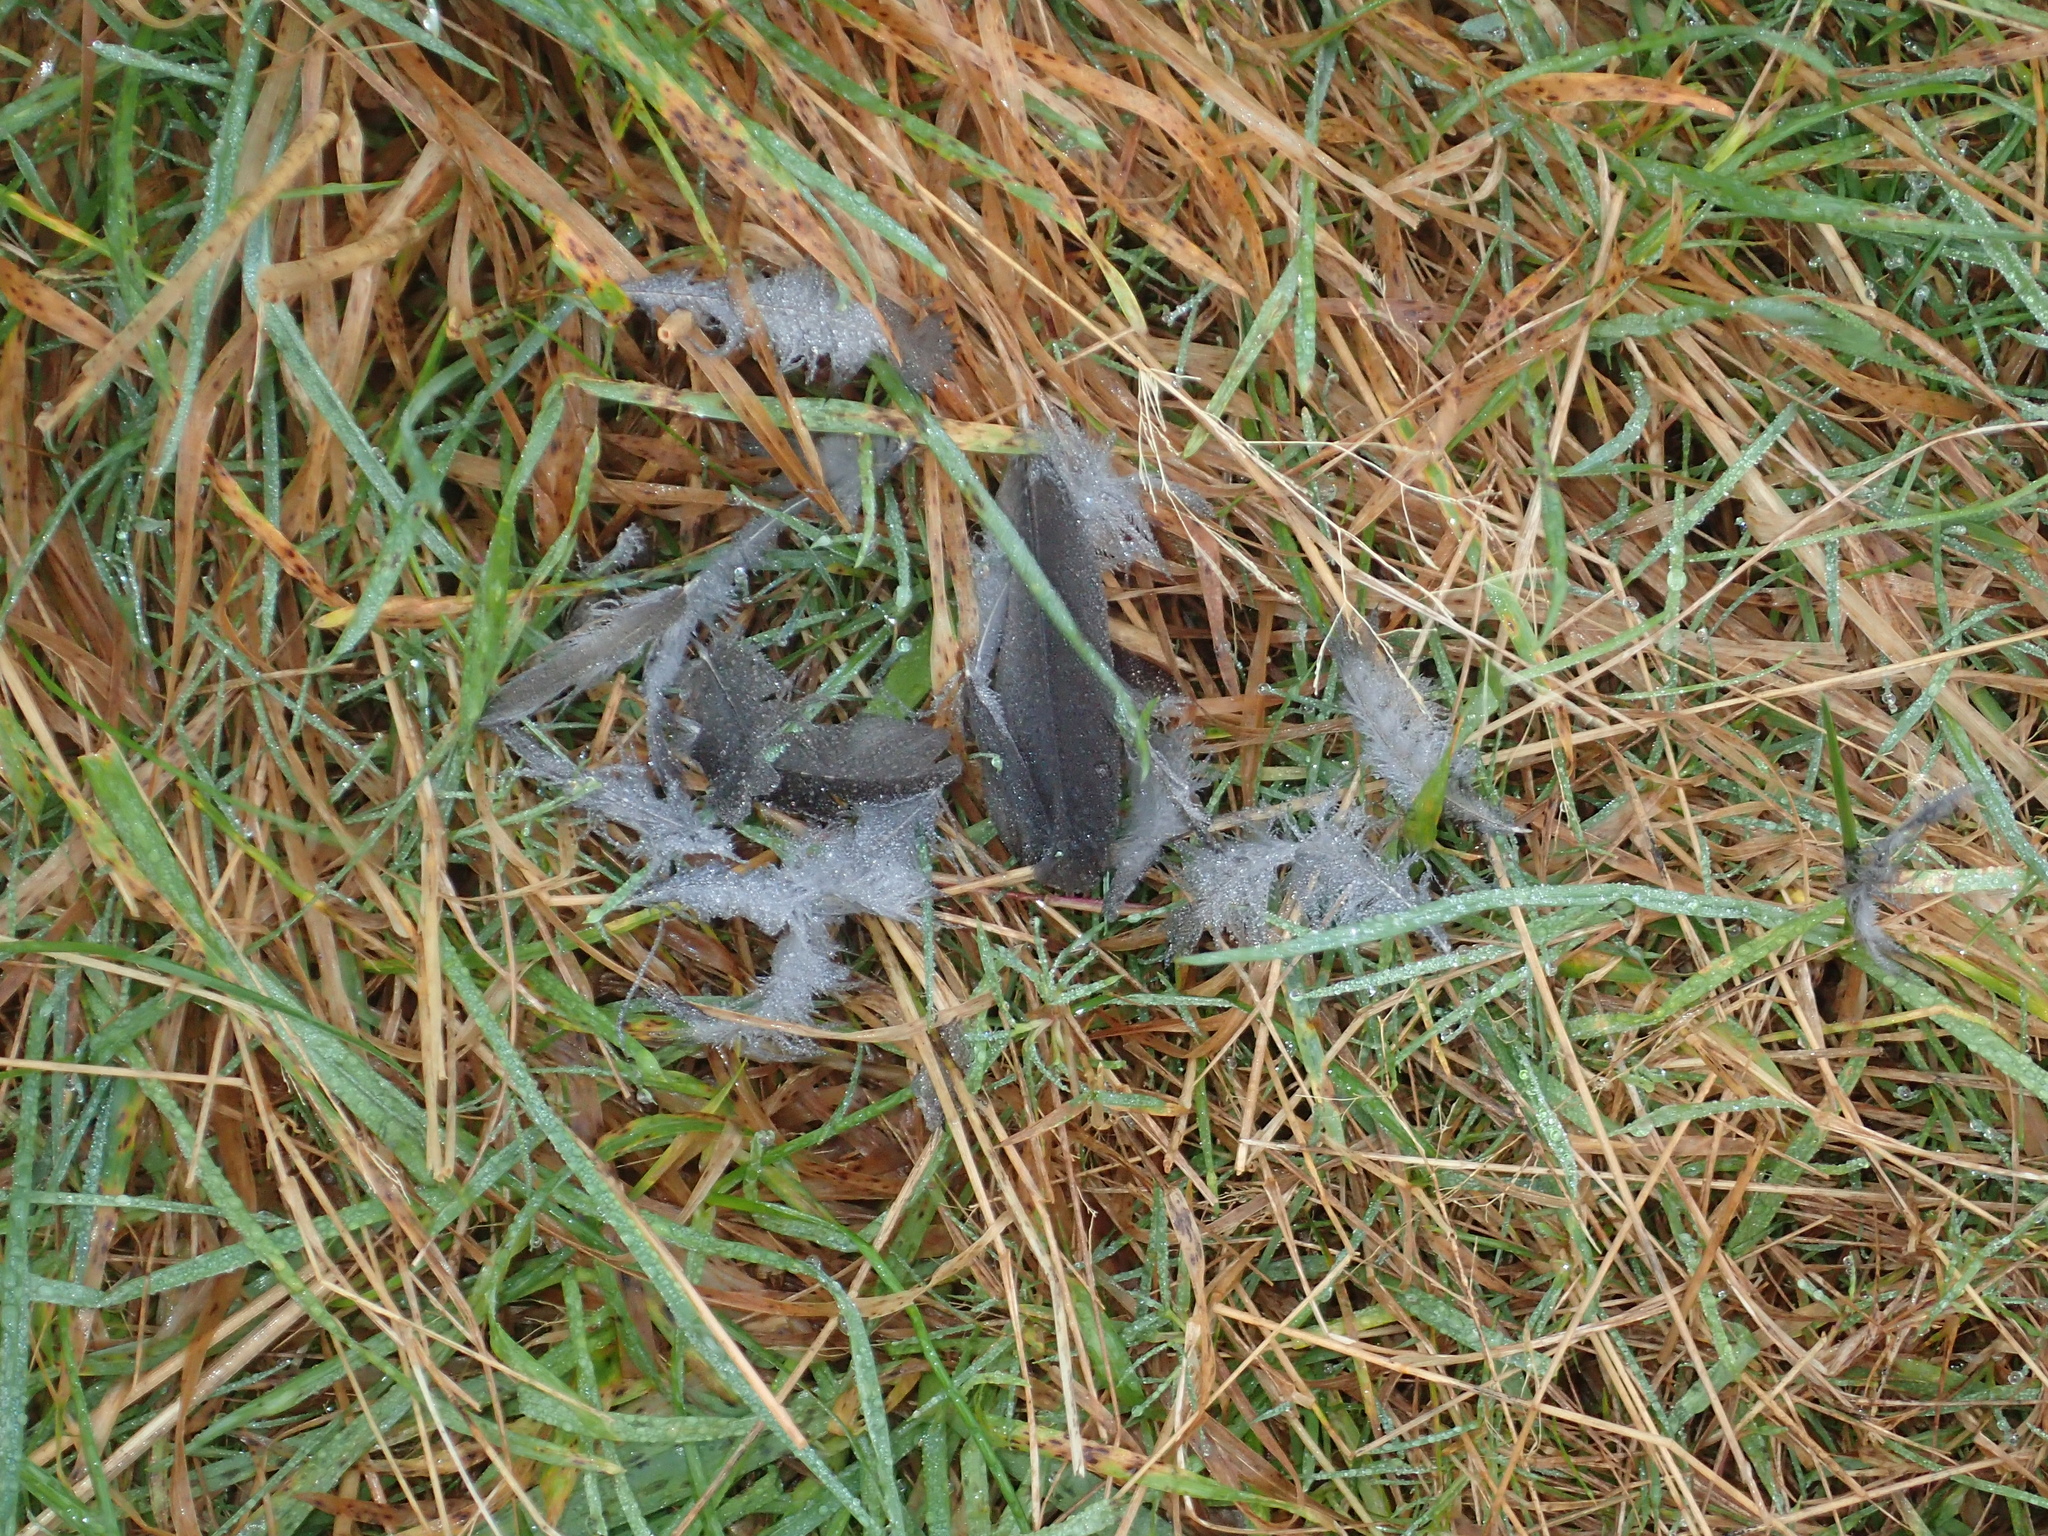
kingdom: Animalia
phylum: Chordata
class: Aves
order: Falconiformes
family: Falconidae
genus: Falco
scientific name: Falco novaeseelandiae
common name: New zealand falcon
